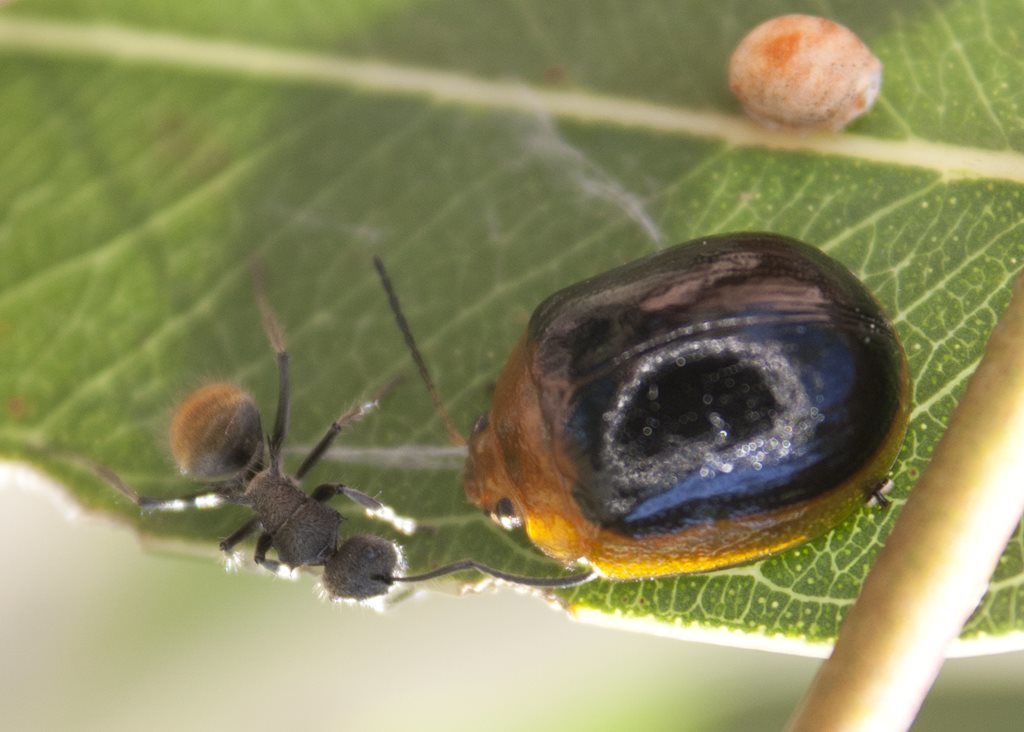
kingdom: Animalia
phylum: Arthropoda
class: Insecta
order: Coleoptera
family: Chrysomelidae
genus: Paropsisterna
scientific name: Paropsisterna cloelia
